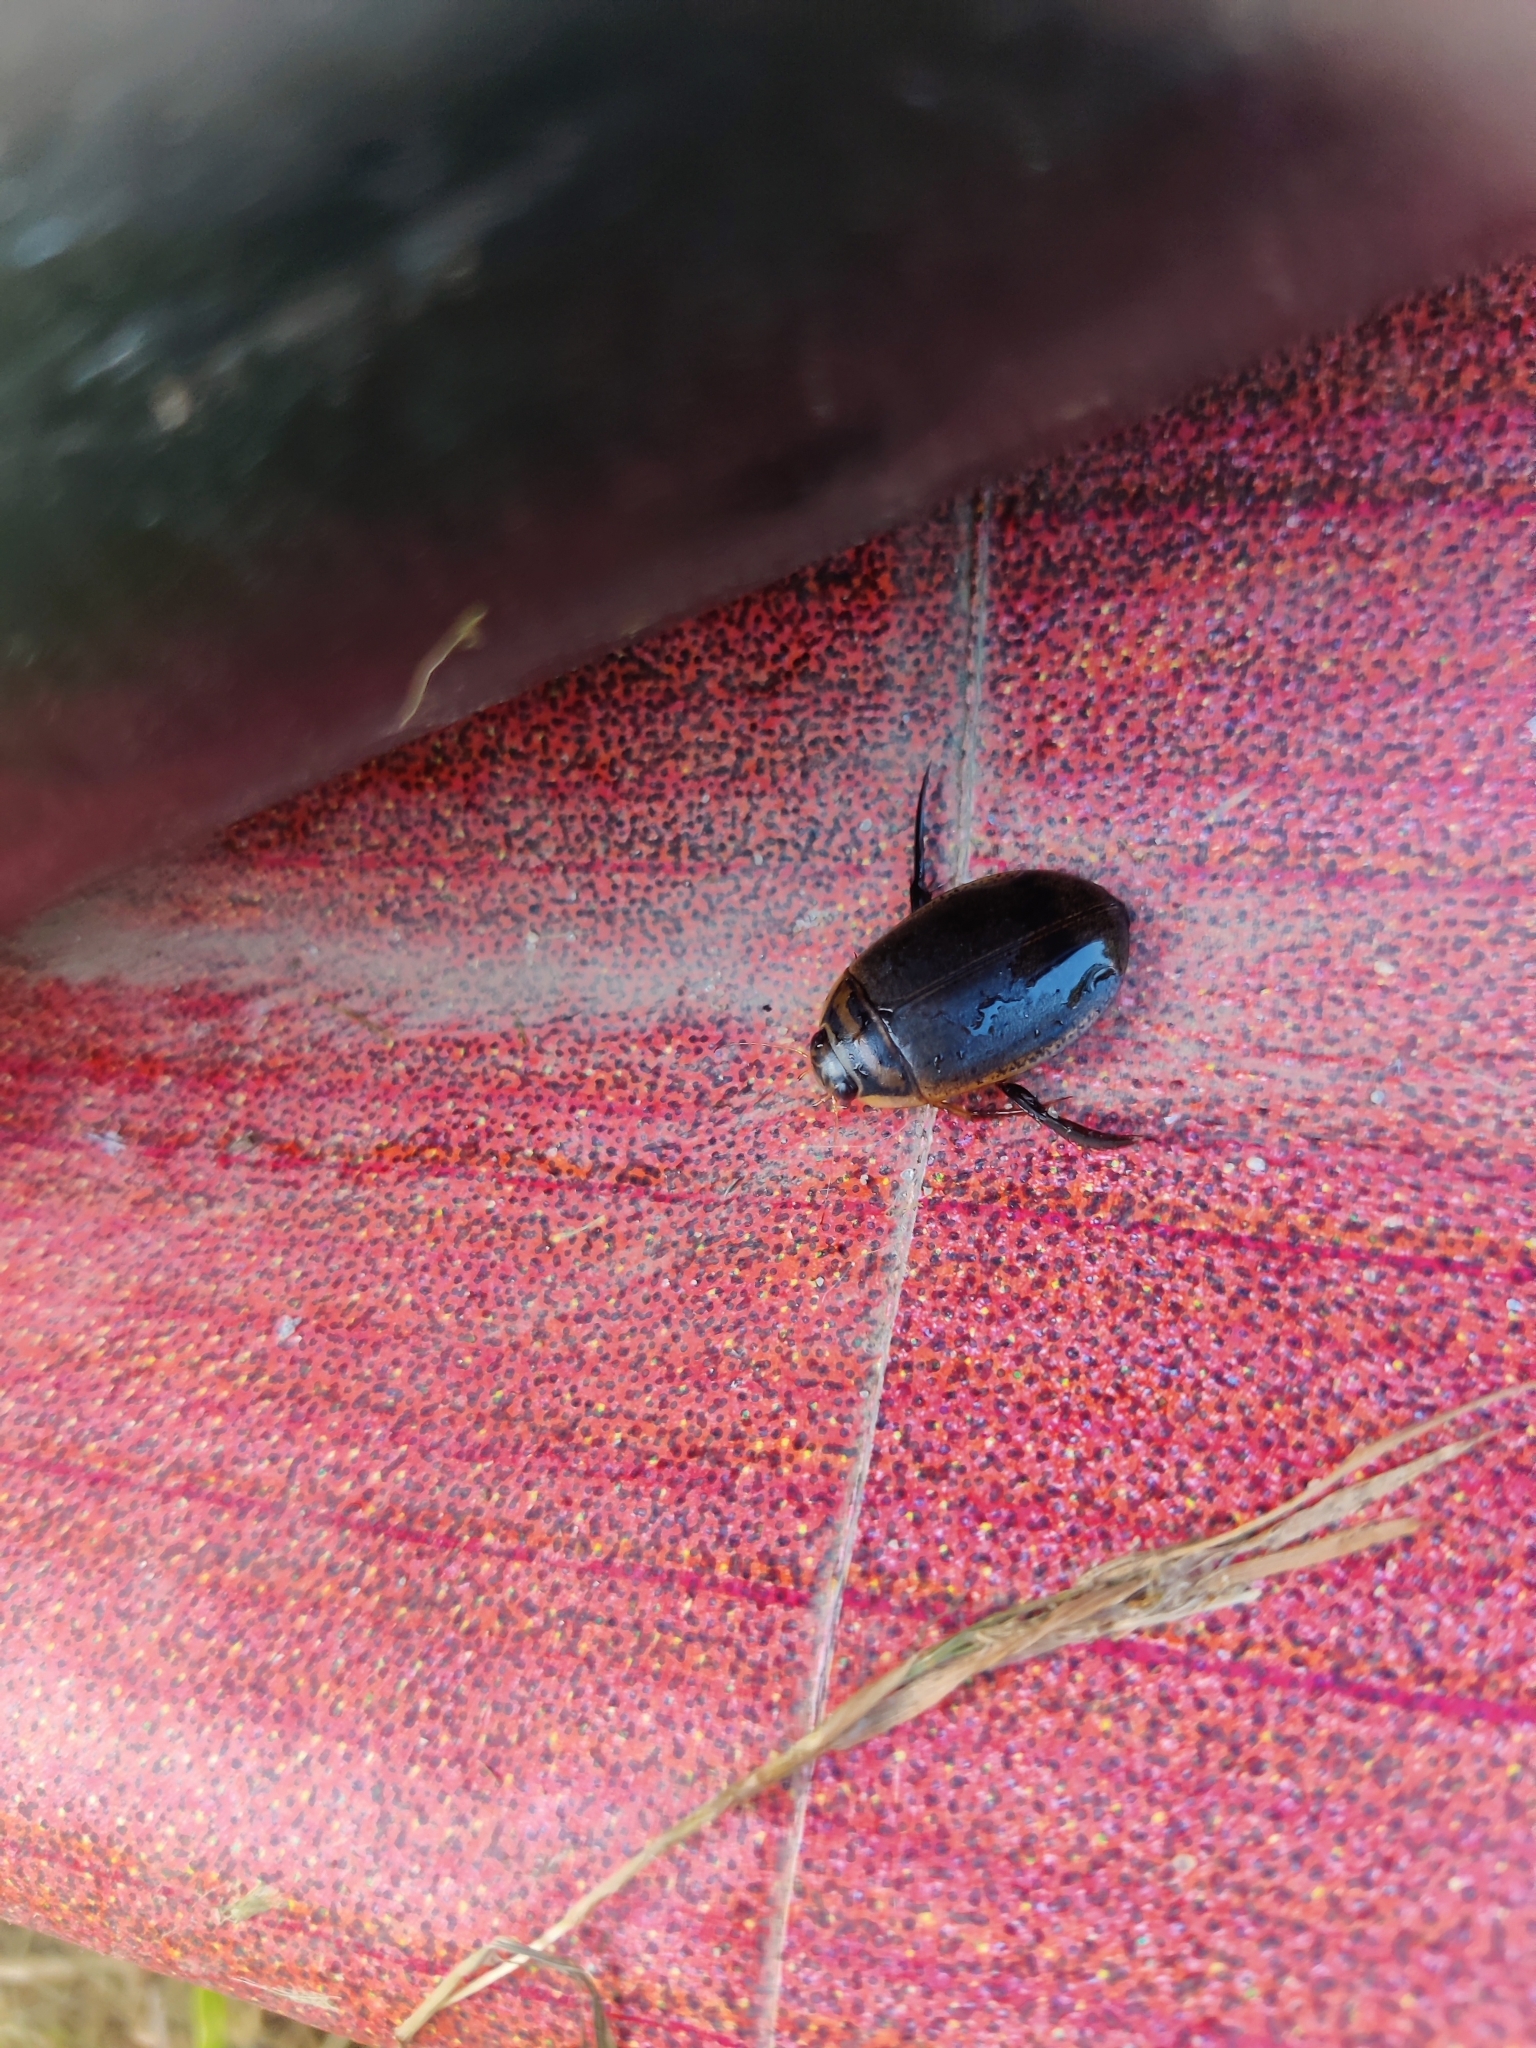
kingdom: Animalia
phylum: Arthropoda
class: Insecta
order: Coleoptera
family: Dytiscidae
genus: Acilius
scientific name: Acilius sulcatus
